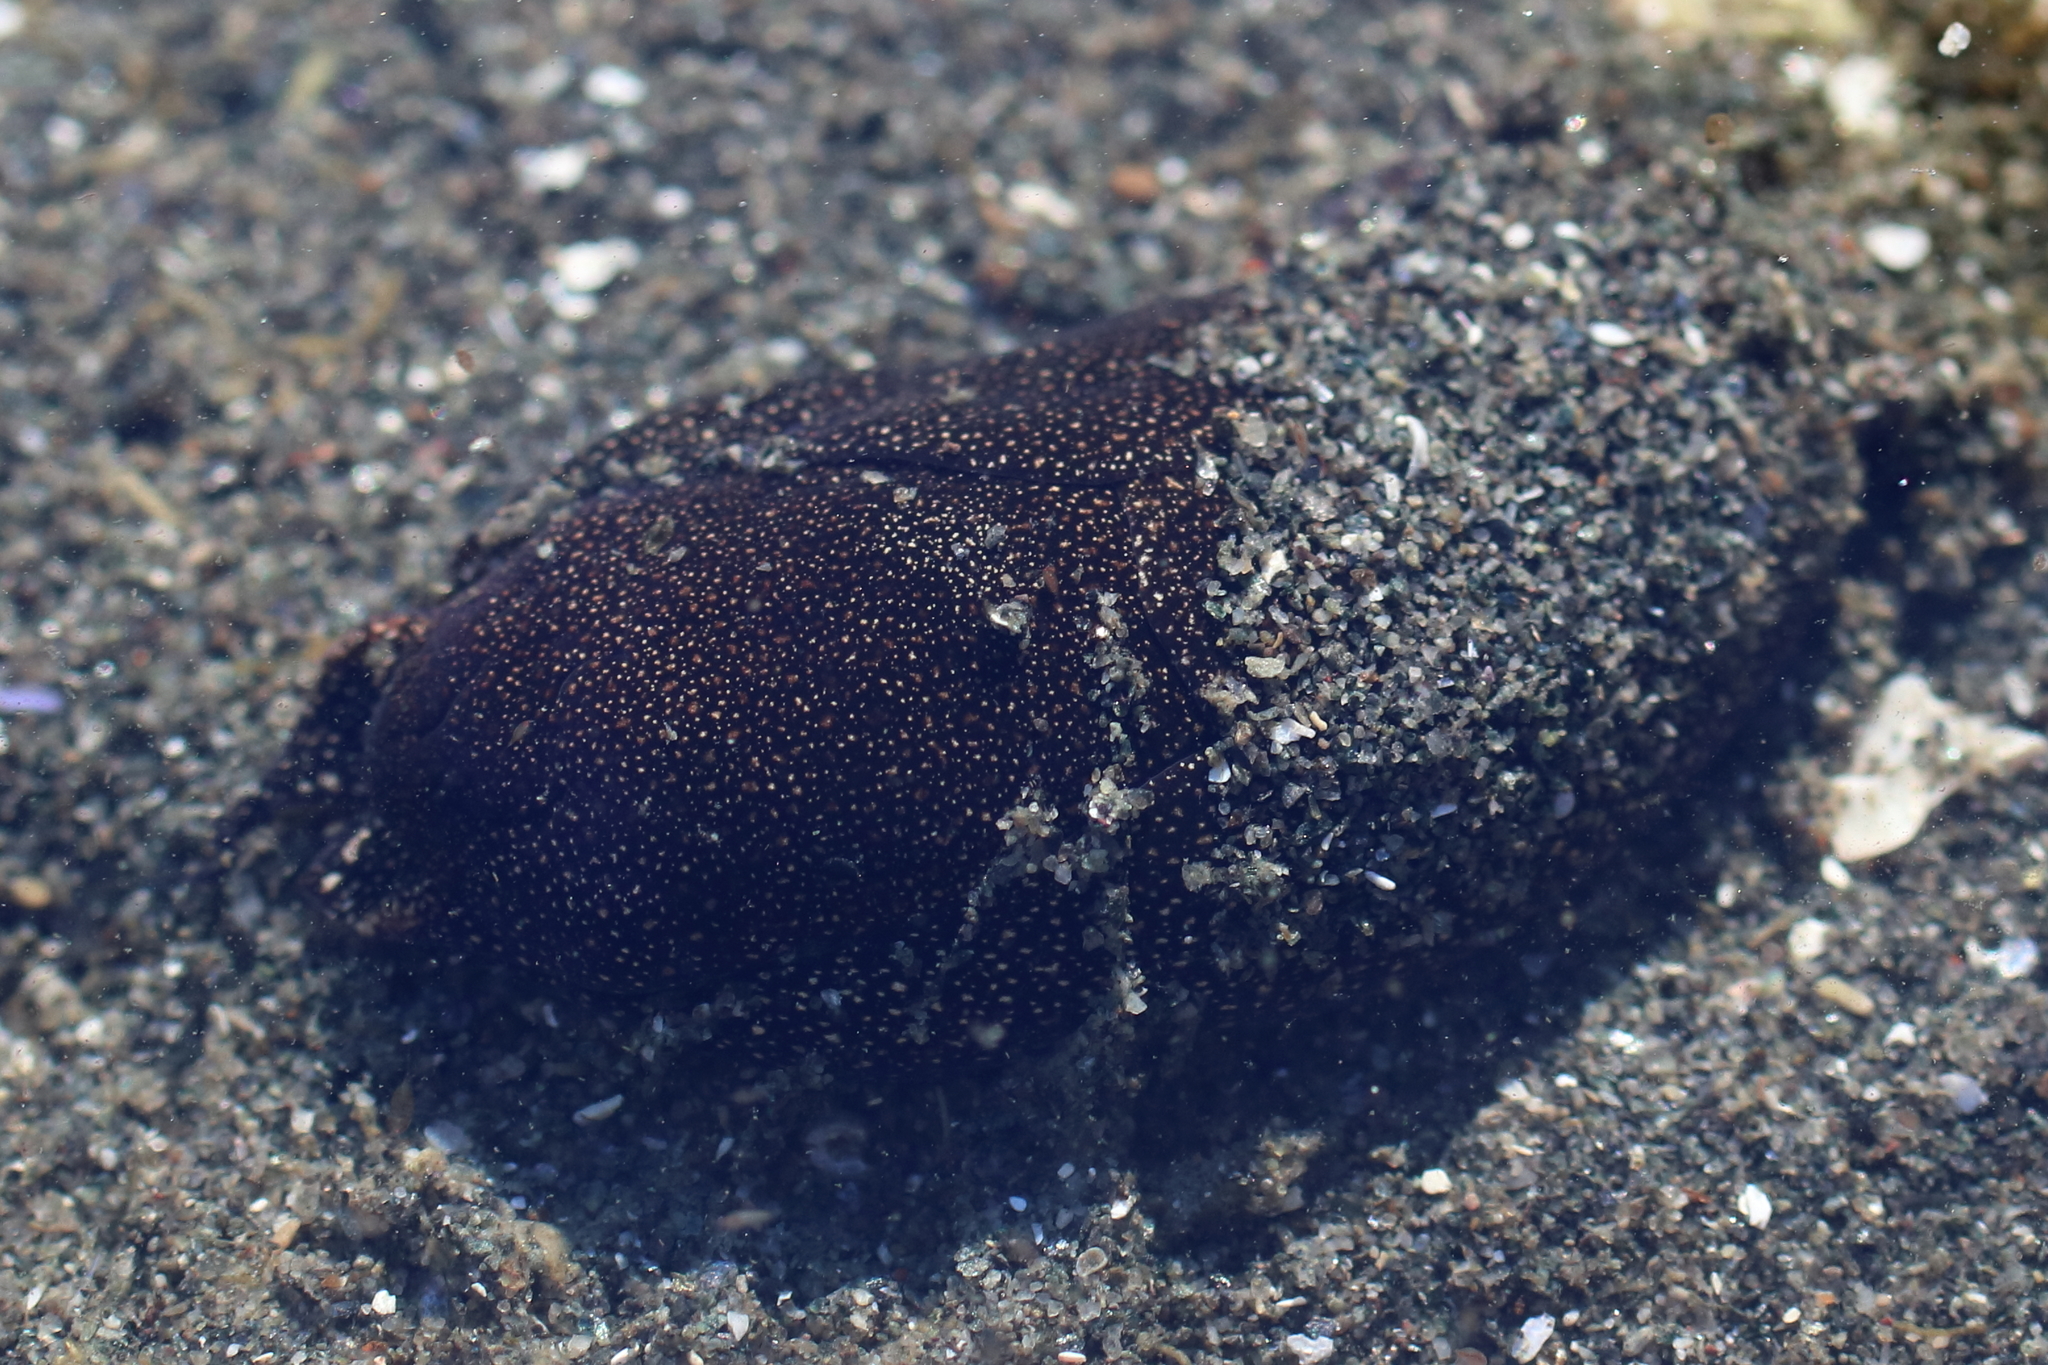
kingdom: Animalia
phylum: Mollusca
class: Gastropoda
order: Cephalaspidea
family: Aglajidae
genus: Aglaja
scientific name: Aglaja ocelligera
